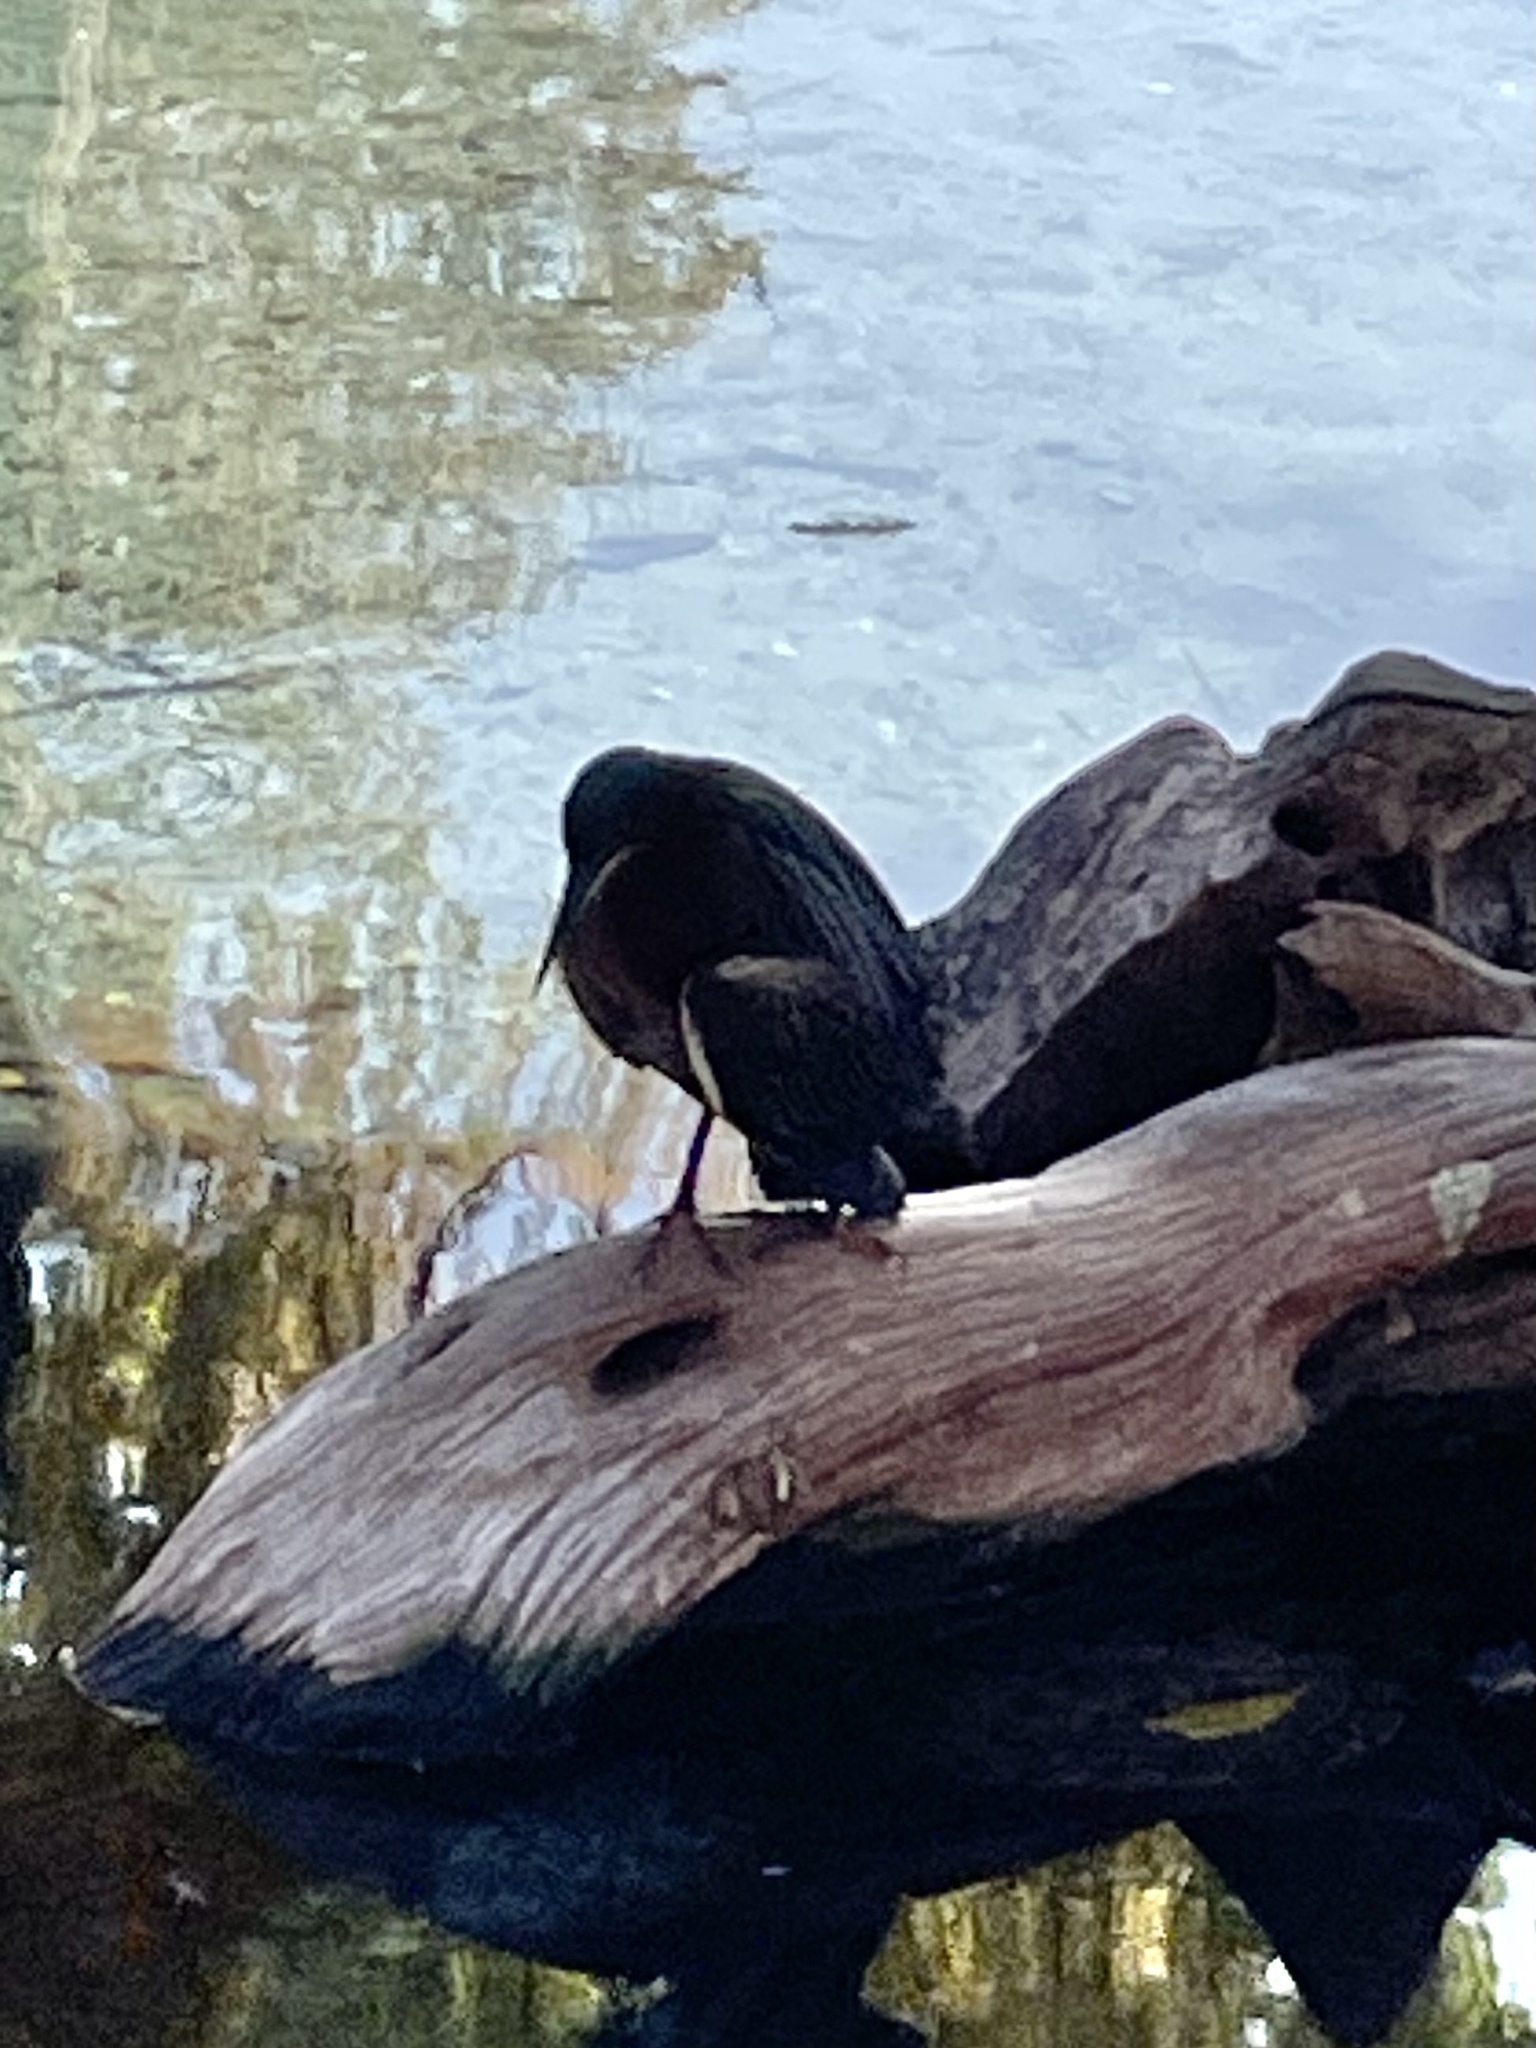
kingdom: Animalia
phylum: Chordata
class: Aves
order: Pelecaniformes
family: Ardeidae
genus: Butorides
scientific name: Butorides virescens
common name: Green heron
